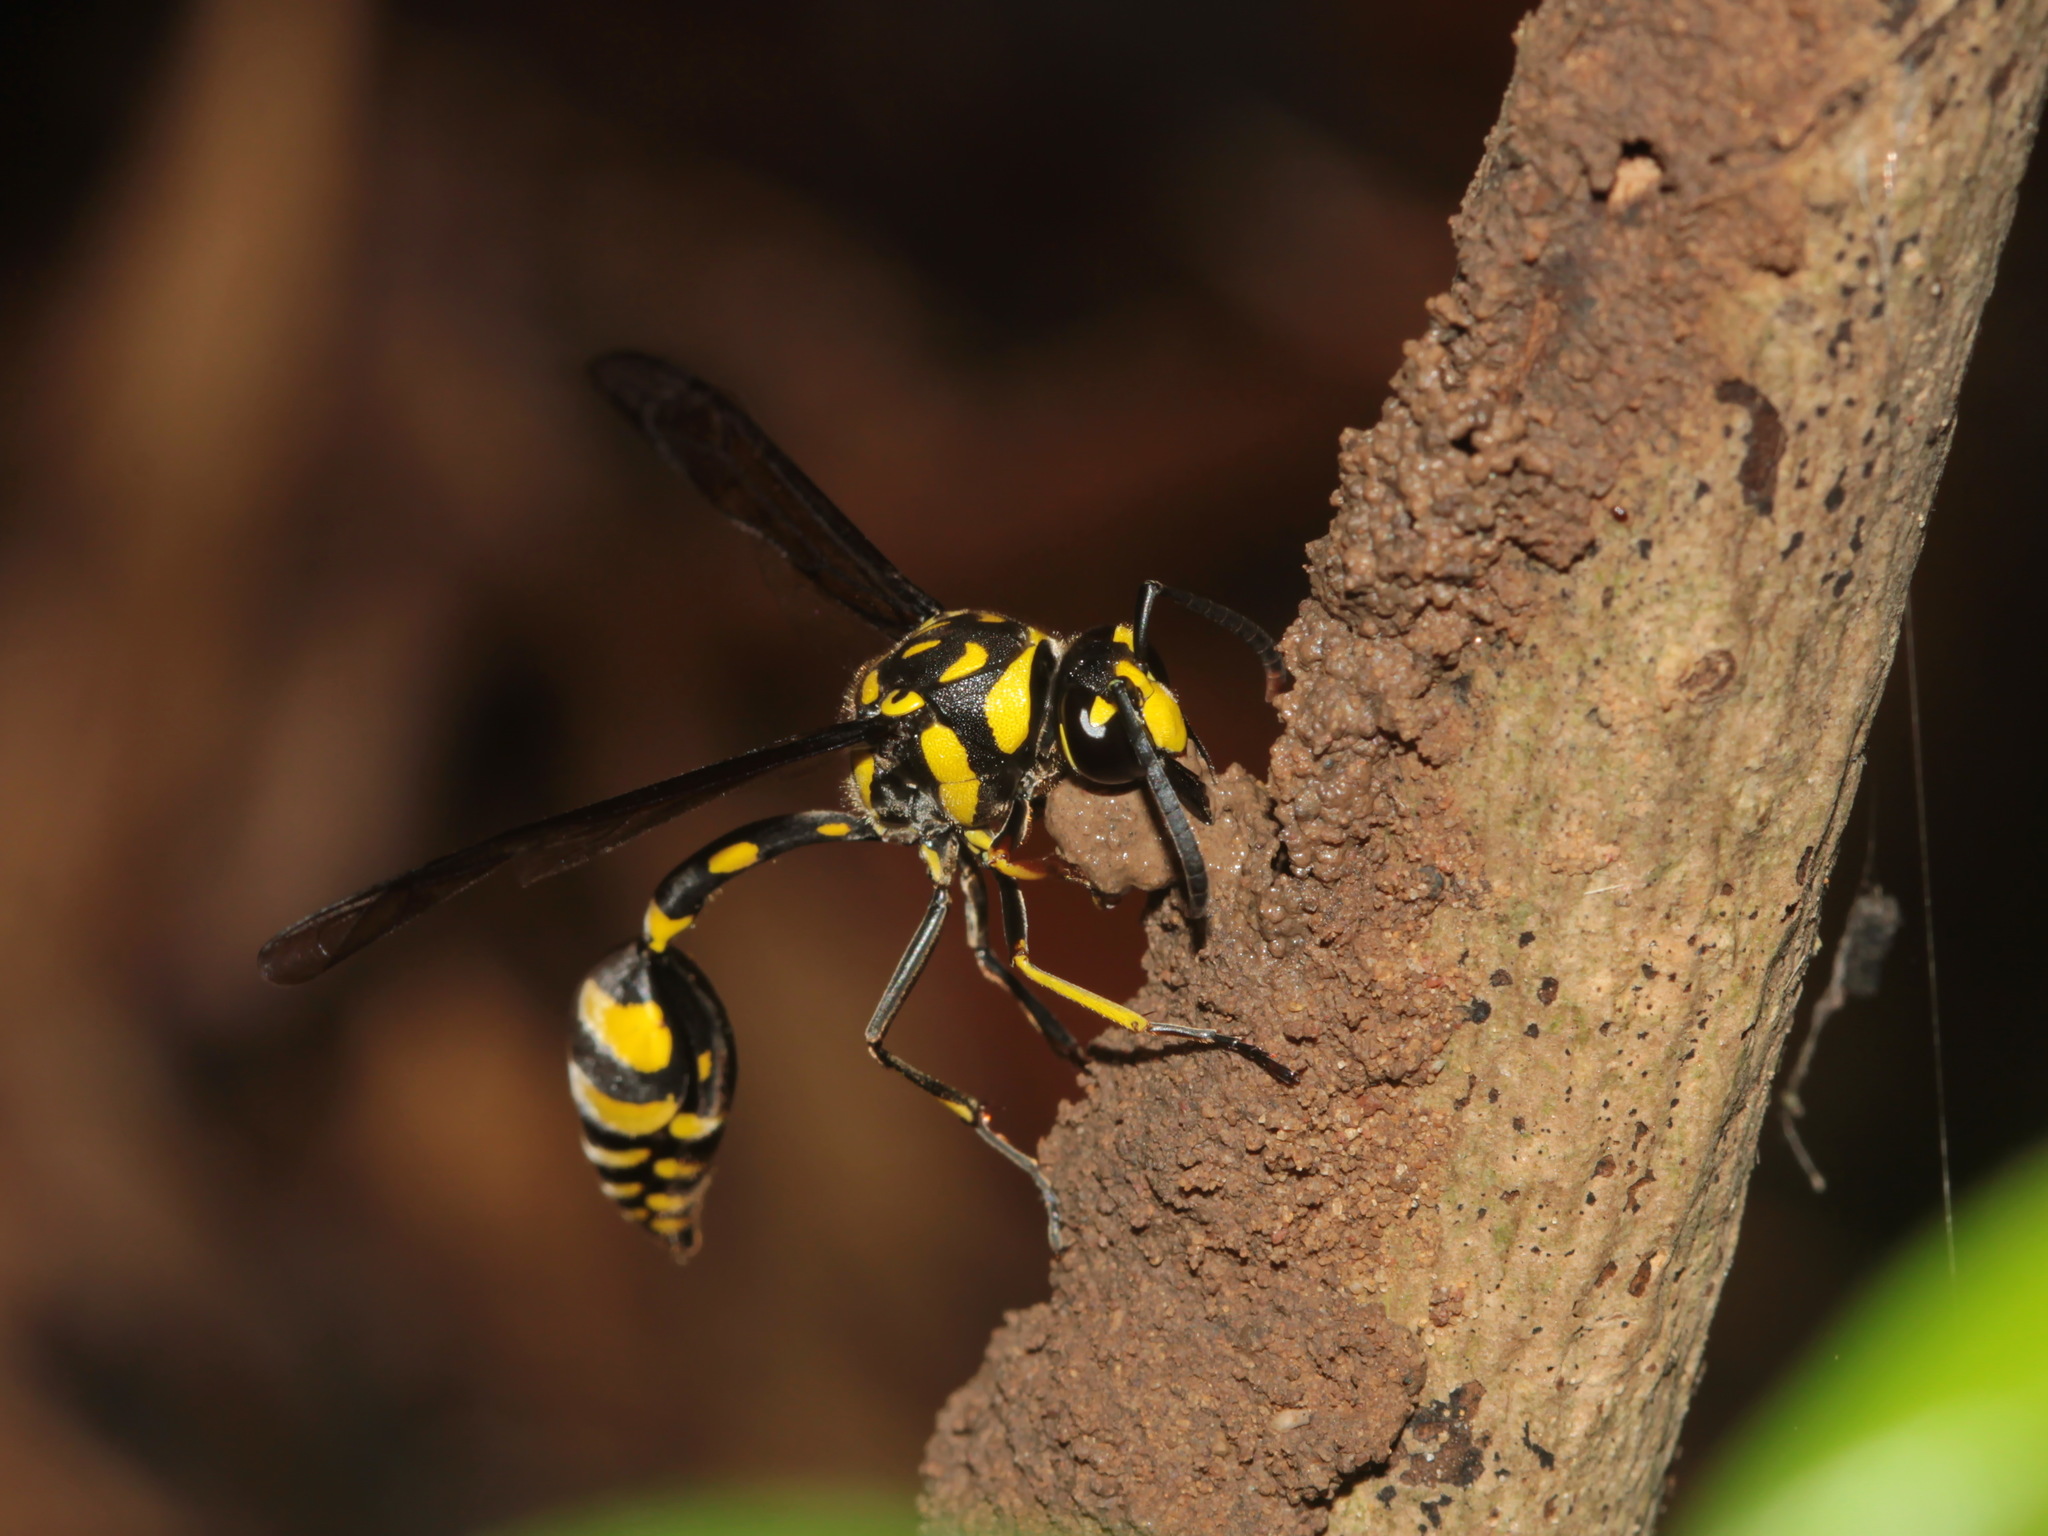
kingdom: Animalia
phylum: Arthropoda
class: Insecta
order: Hymenoptera
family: Eumenidae
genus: Phimenes
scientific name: Phimenes flavopictus
